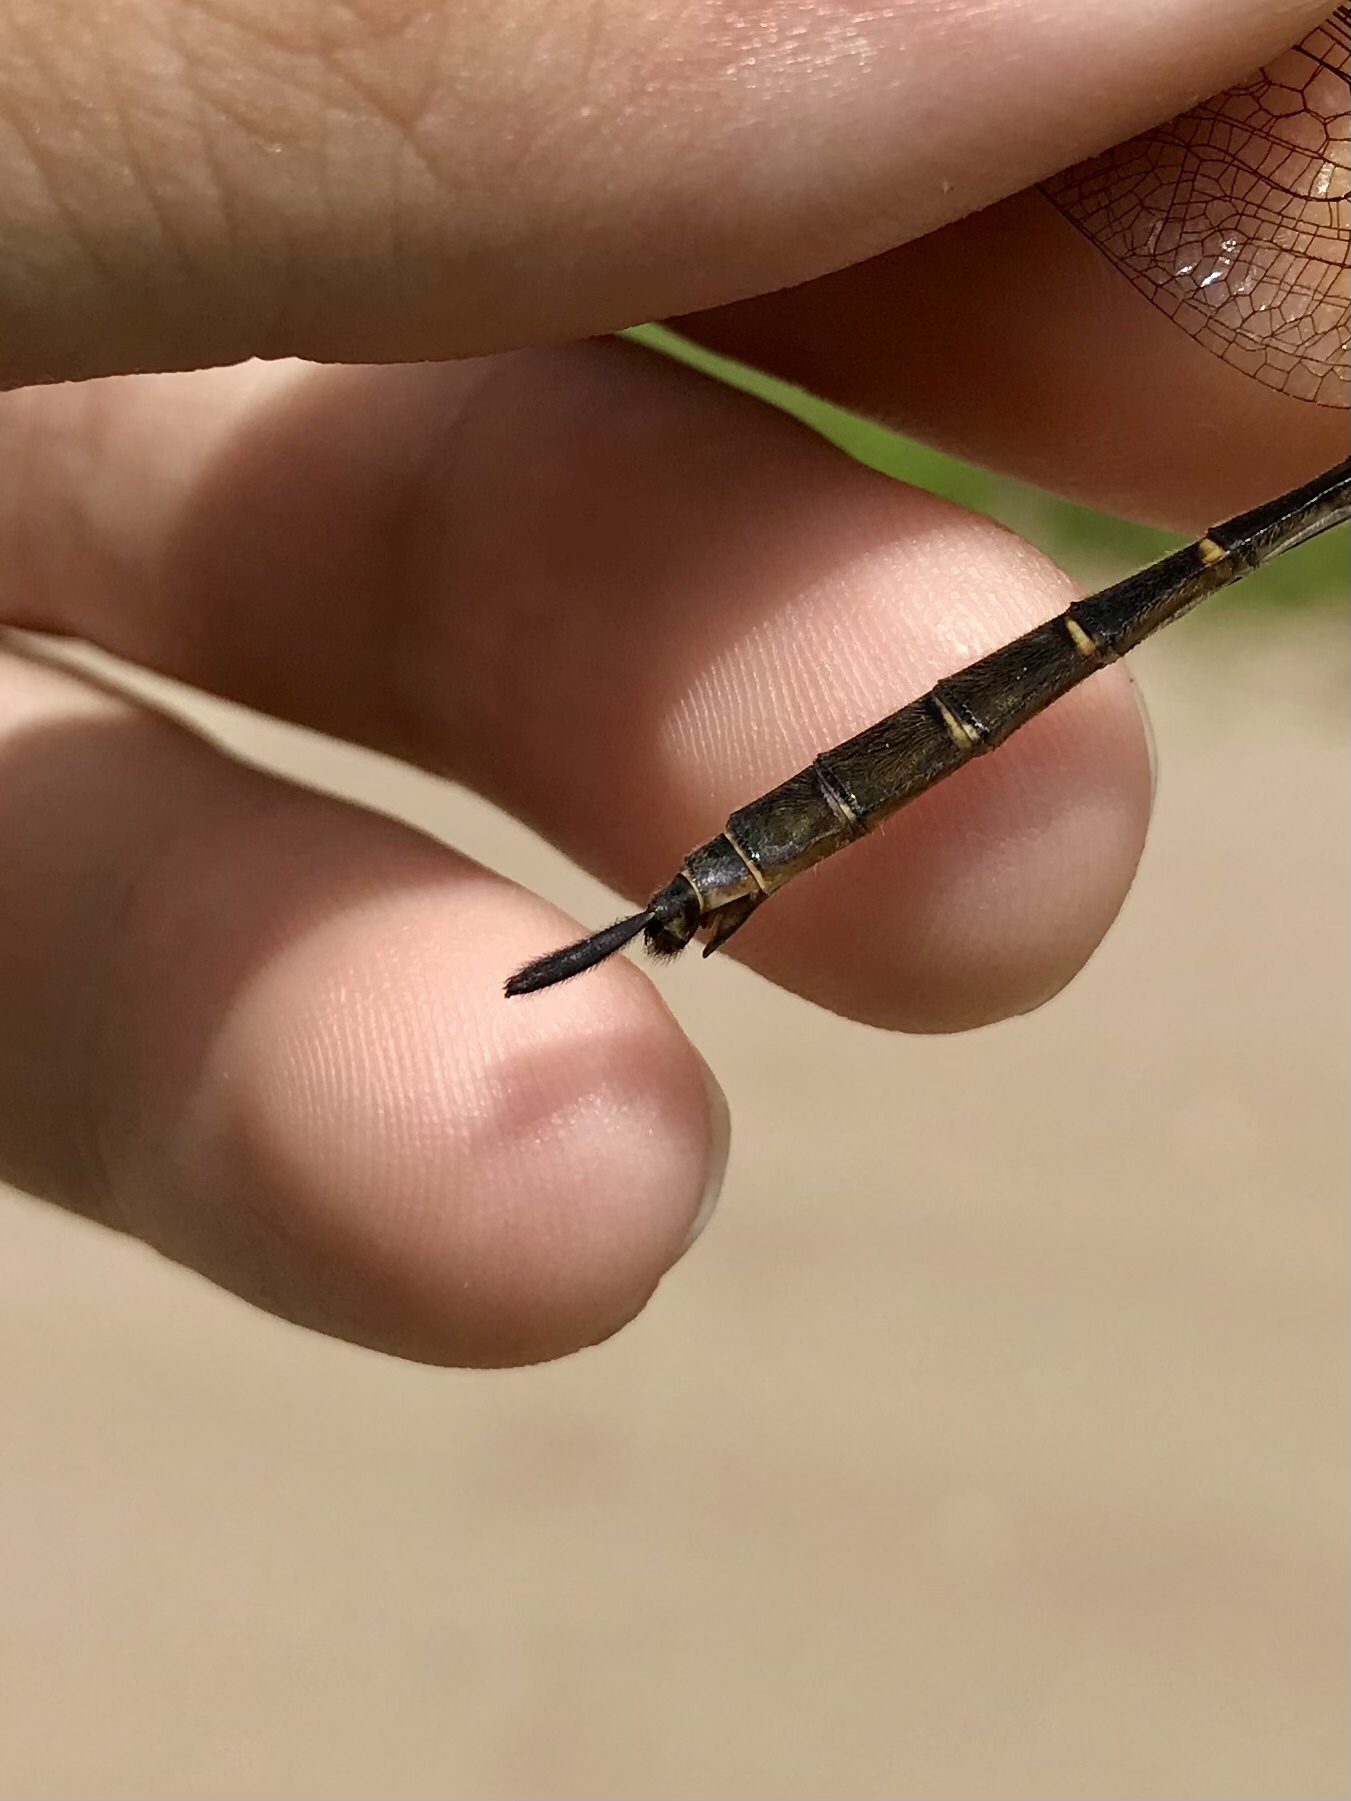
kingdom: Animalia
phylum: Arthropoda
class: Insecta
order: Odonata
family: Corduliidae
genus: Somatochlora
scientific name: Somatochlora walshii
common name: Brush-tipped emerald
